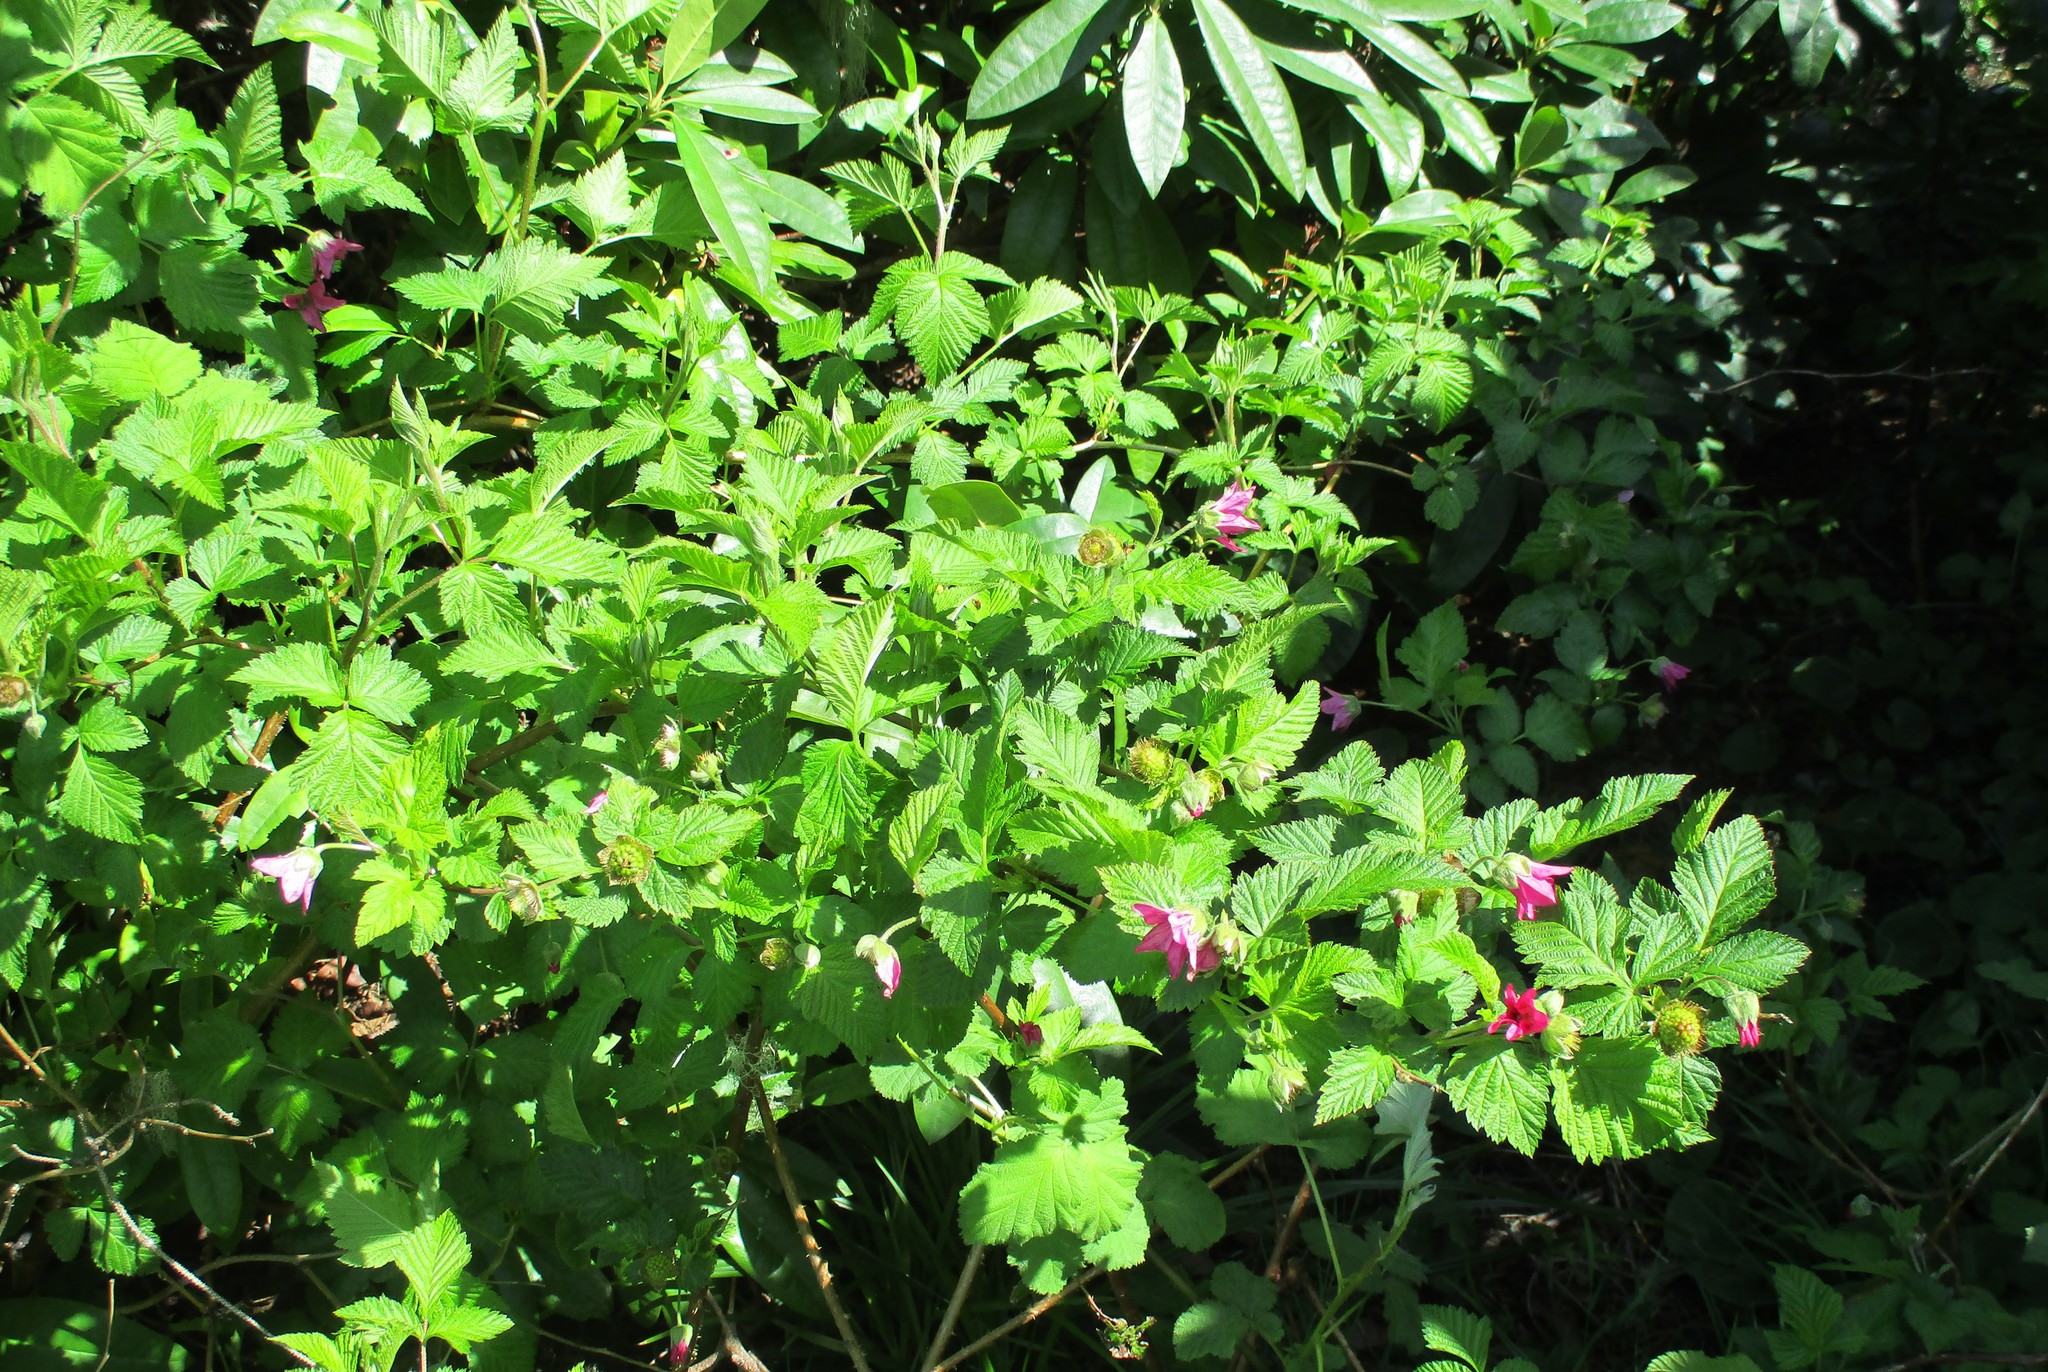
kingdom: Plantae
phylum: Tracheophyta
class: Magnoliopsida
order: Rosales
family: Rosaceae
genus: Rubus
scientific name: Rubus spectabilis
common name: Salmonberry
